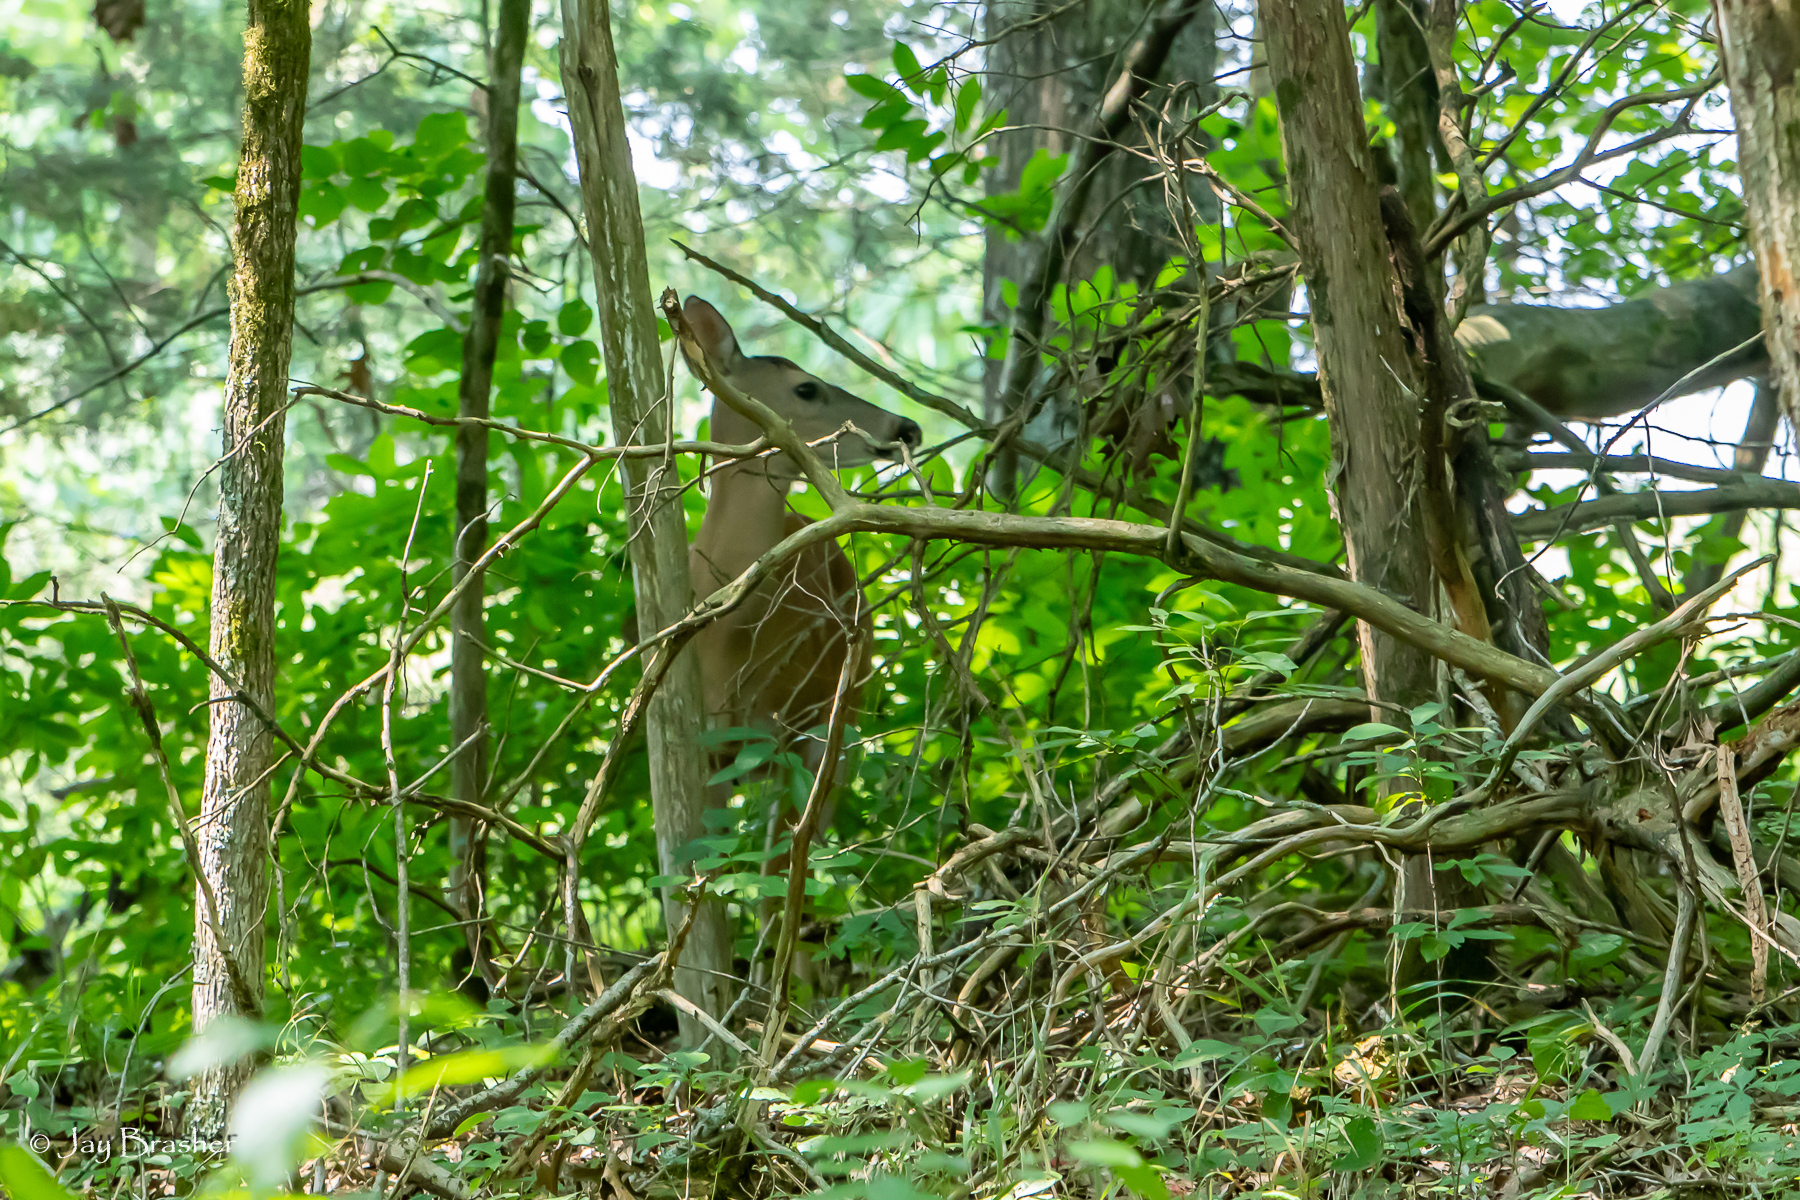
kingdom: Animalia
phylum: Chordata
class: Mammalia
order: Artiodactyla
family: Cervidae
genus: Odocoileus
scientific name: Odocoileus virginianus
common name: White-tailed deer
